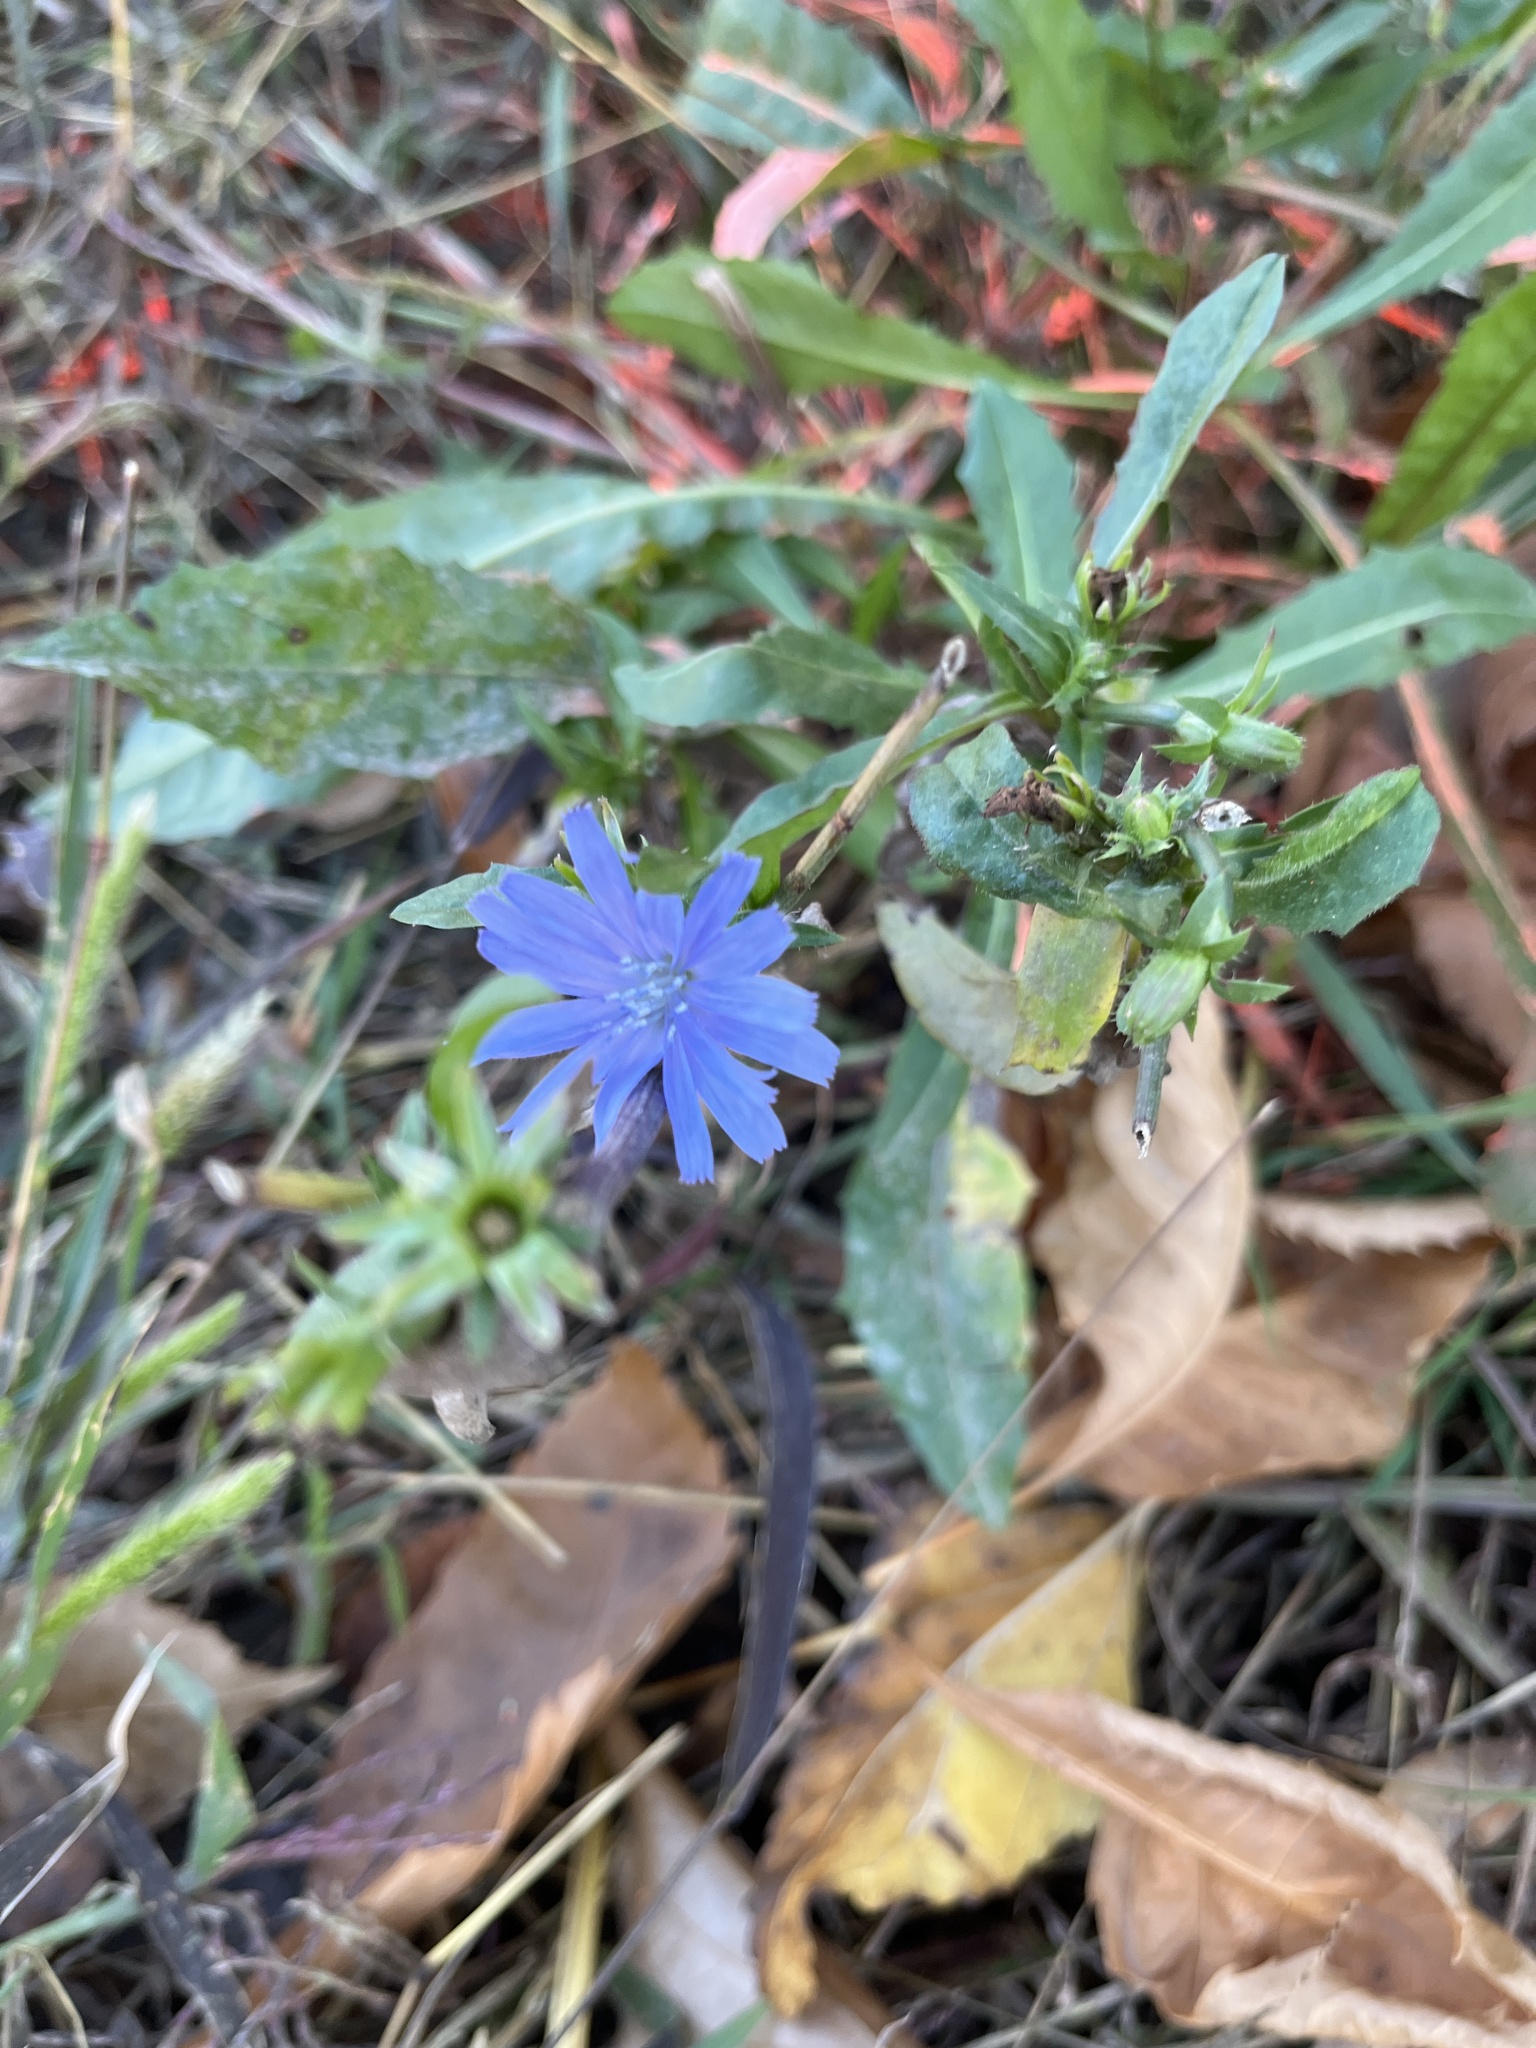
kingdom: Plantae
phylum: Tracheophyta
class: Magnoliopsida
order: Asterales
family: Asteraceae
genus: Cichorium
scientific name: Cichorium intybus
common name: Chicory
